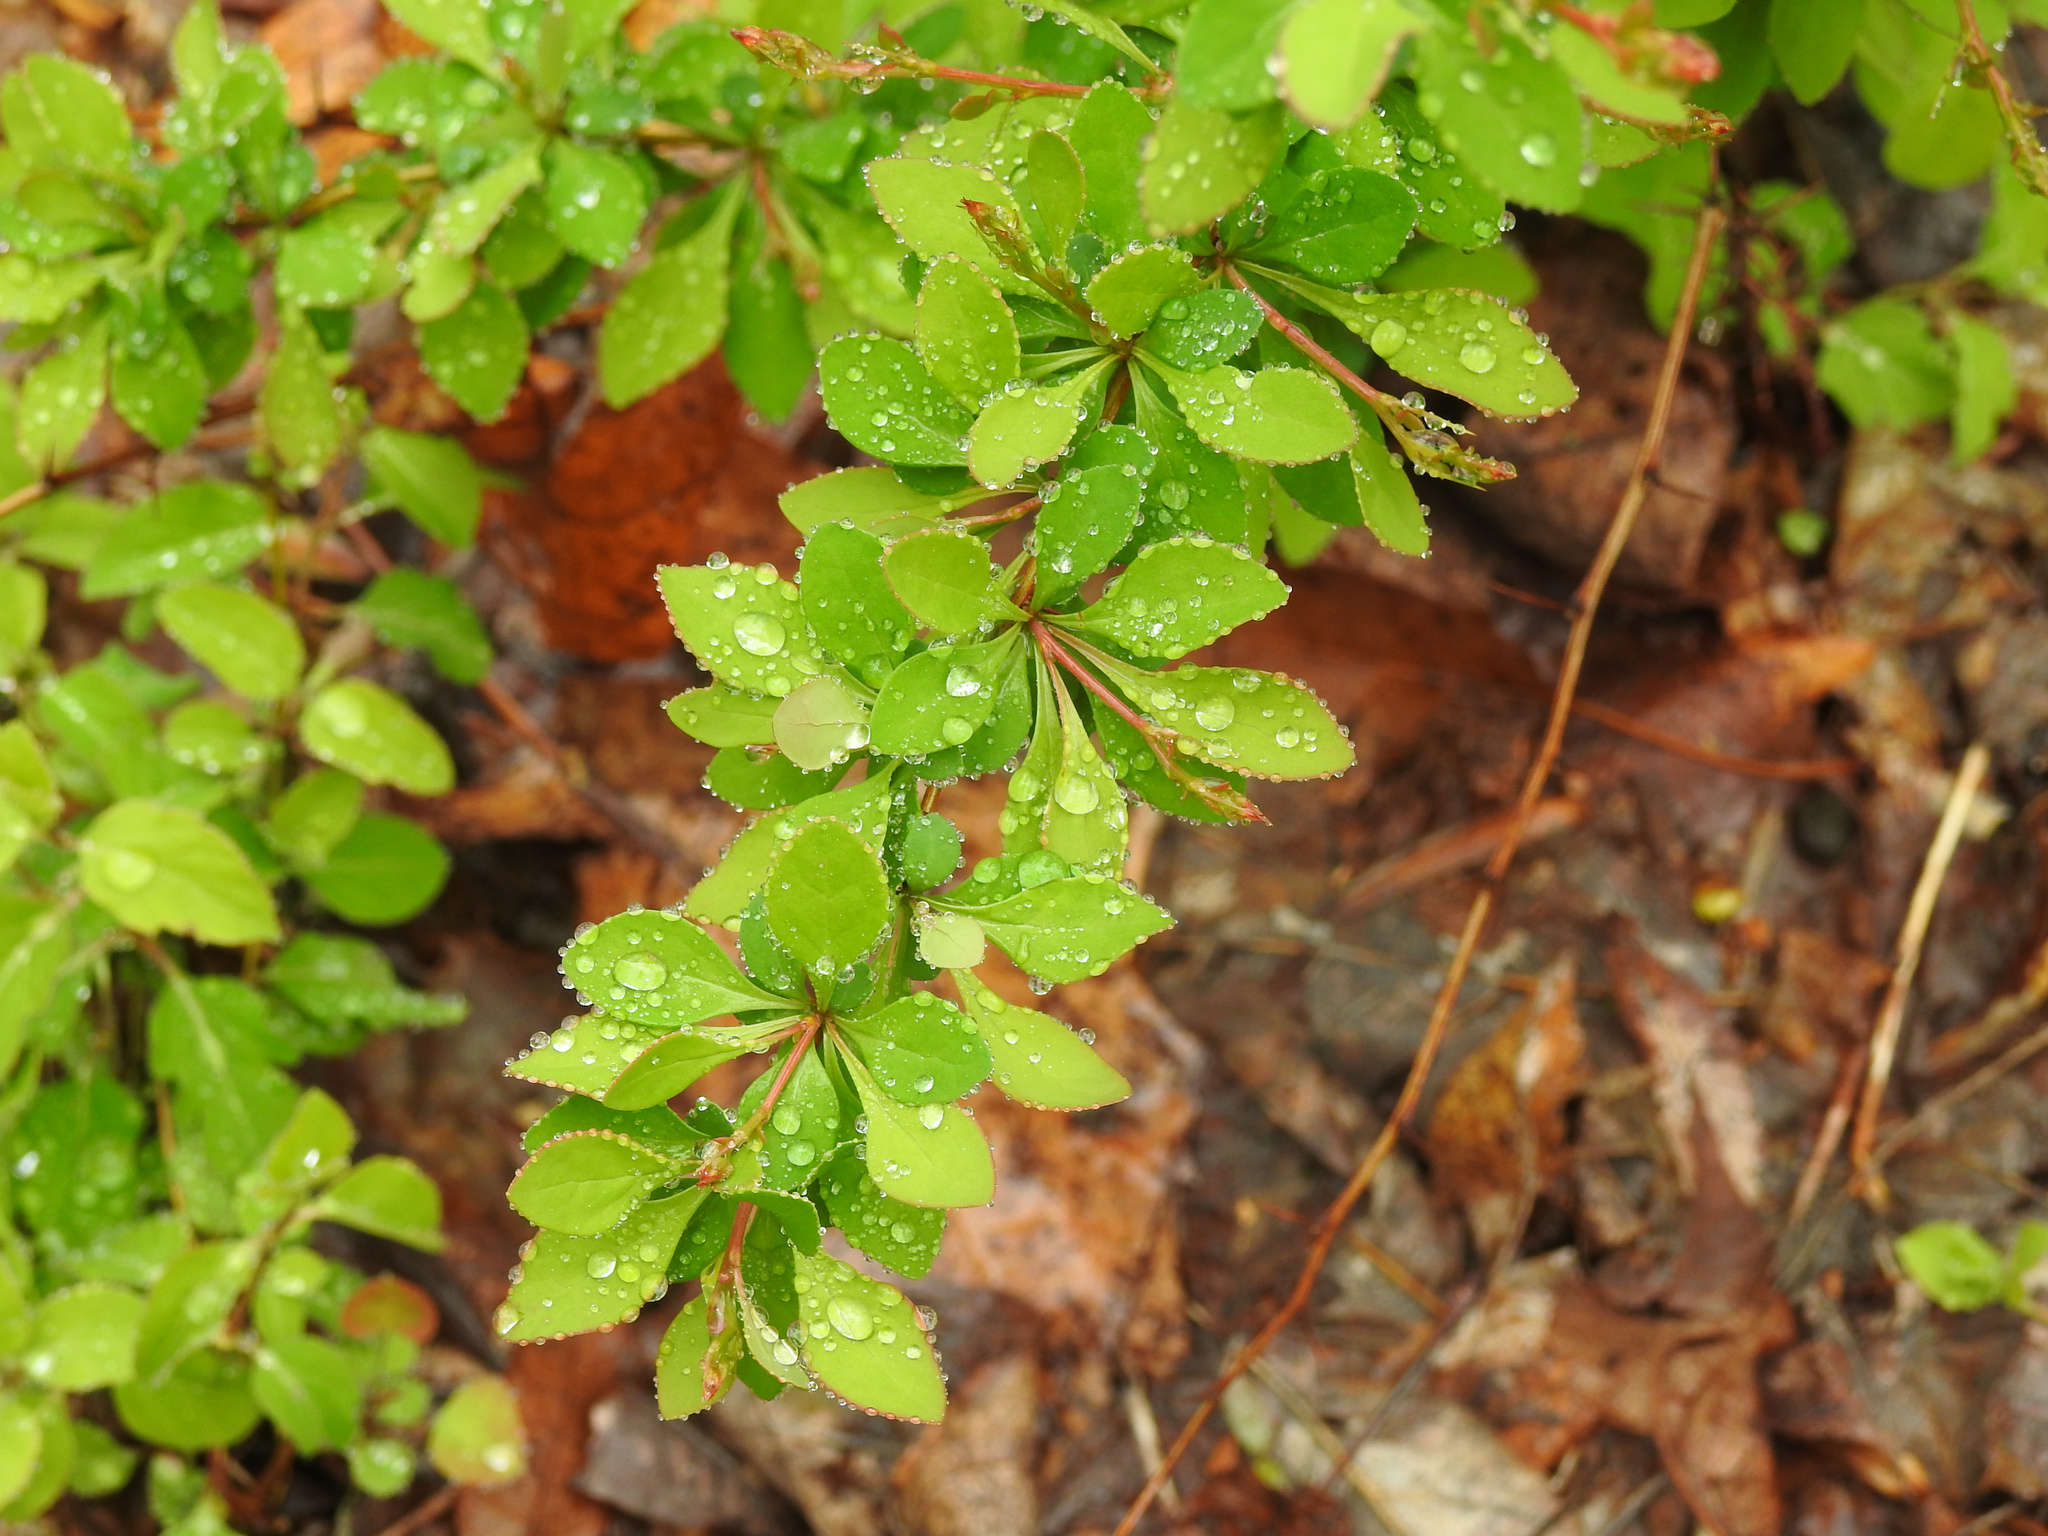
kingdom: Plantae
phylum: Tracheophyta
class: Magnoliopsida
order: Ranunculales
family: Berberidaceae
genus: Berberis
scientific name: Berberis thunbergii
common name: Japanese barberry
